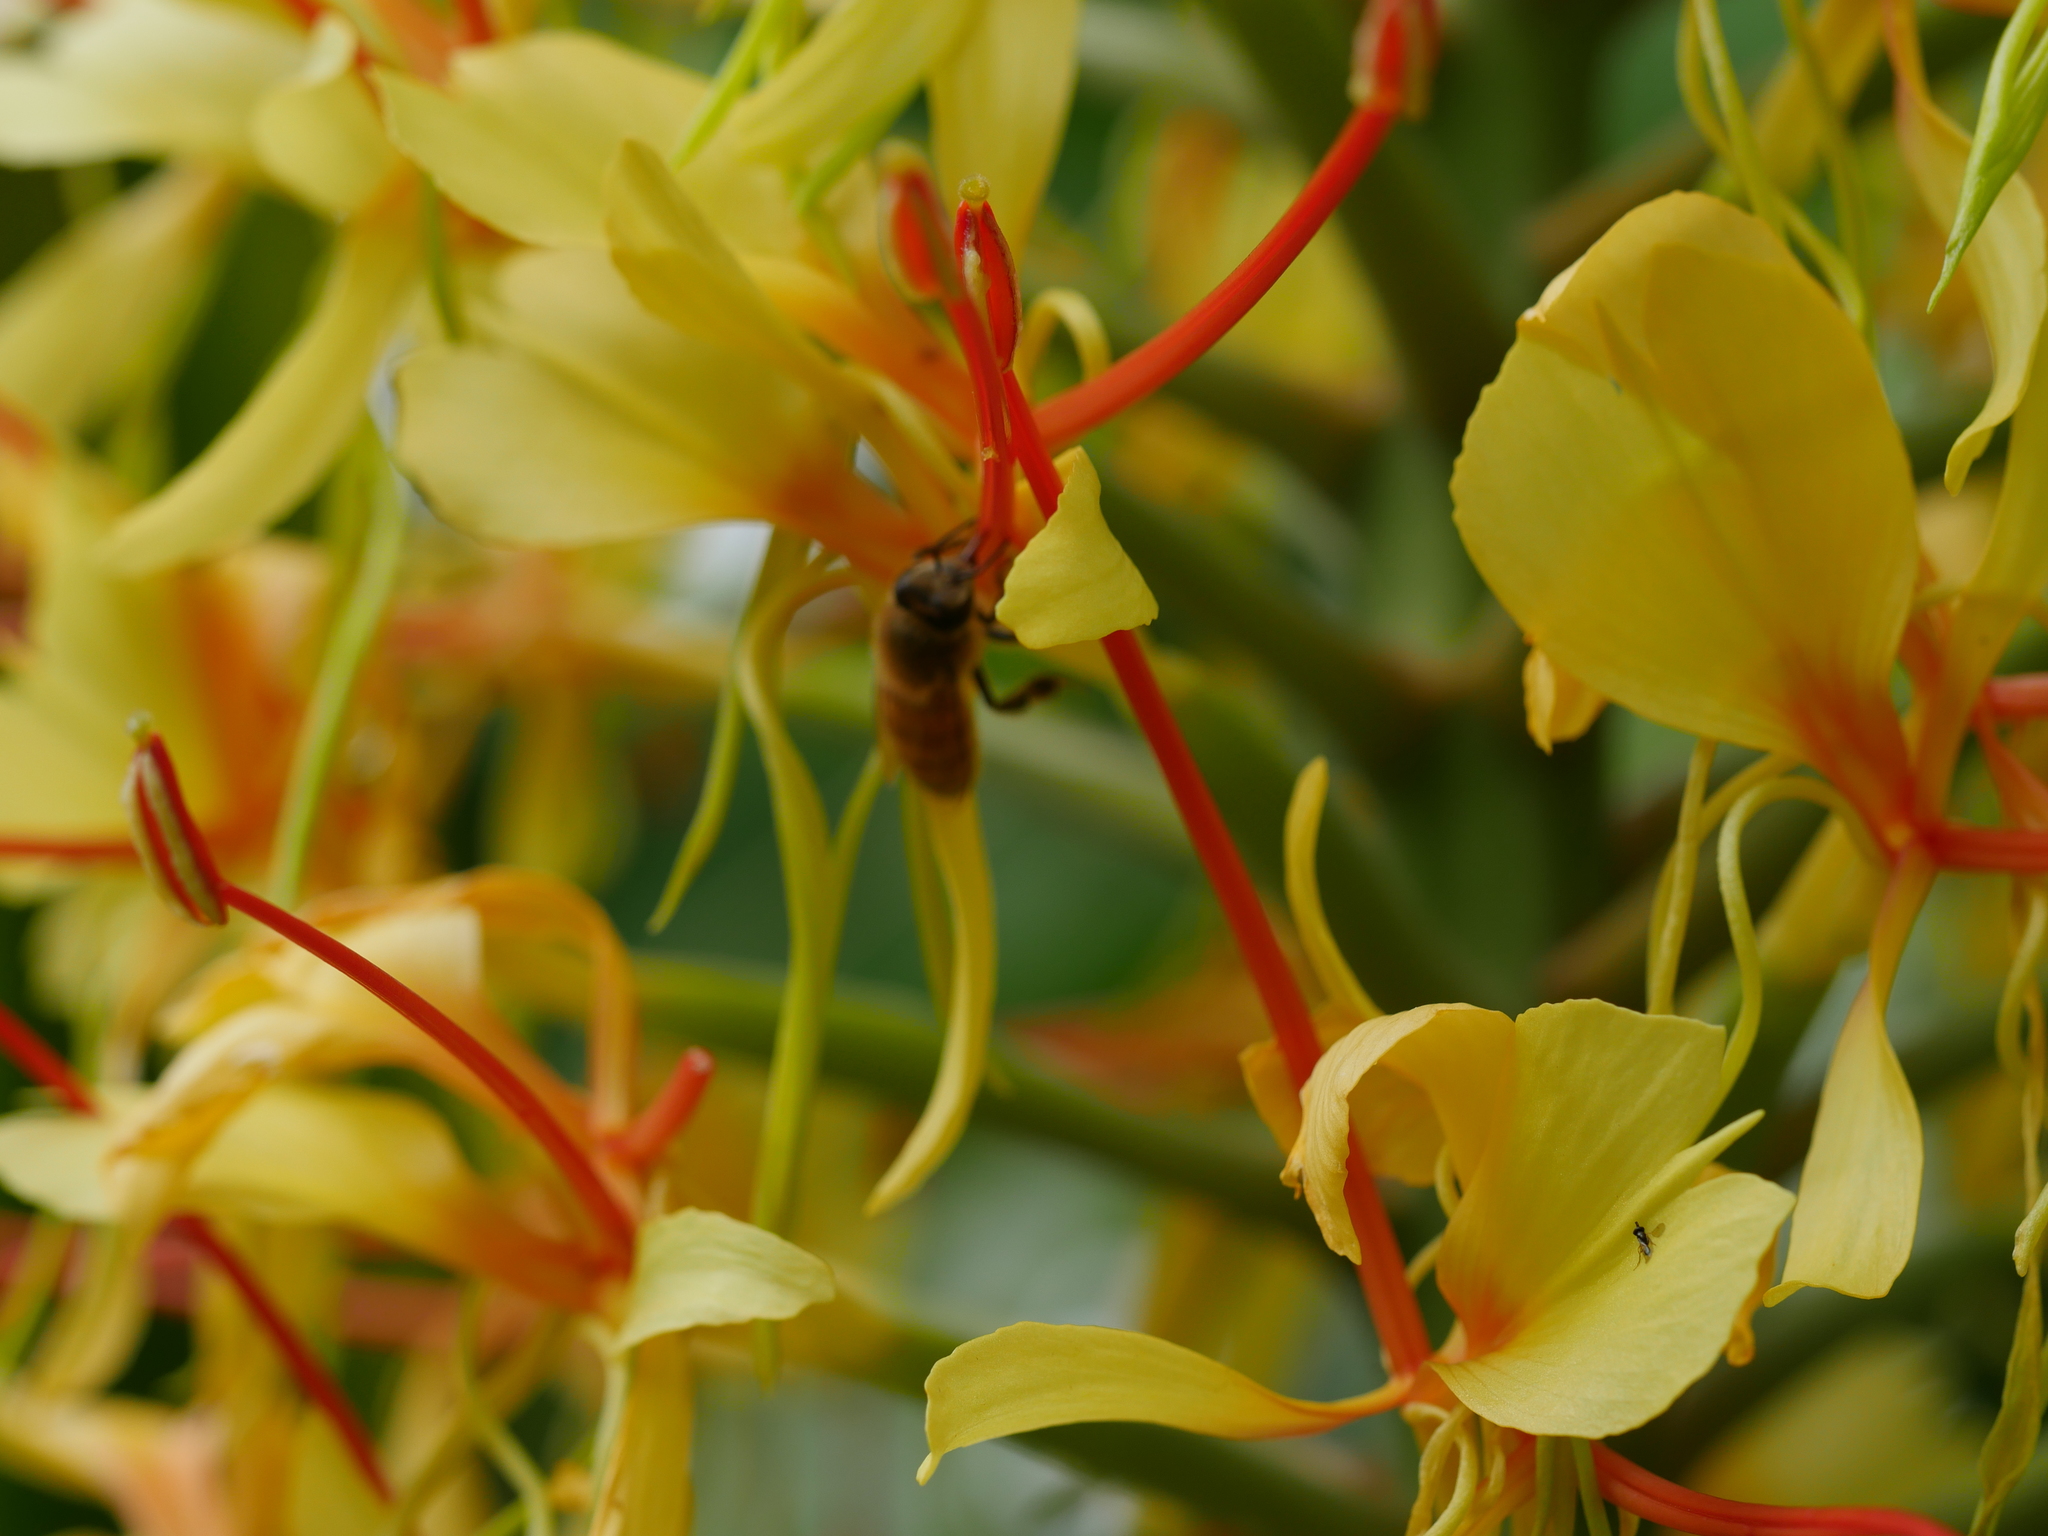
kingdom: Plantae
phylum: Tracheophyta
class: Liliopsida
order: Zingiberales
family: Zingiberaceae
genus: Hedychium
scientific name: Hedychium gardnerianum
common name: Himalayan ginger
